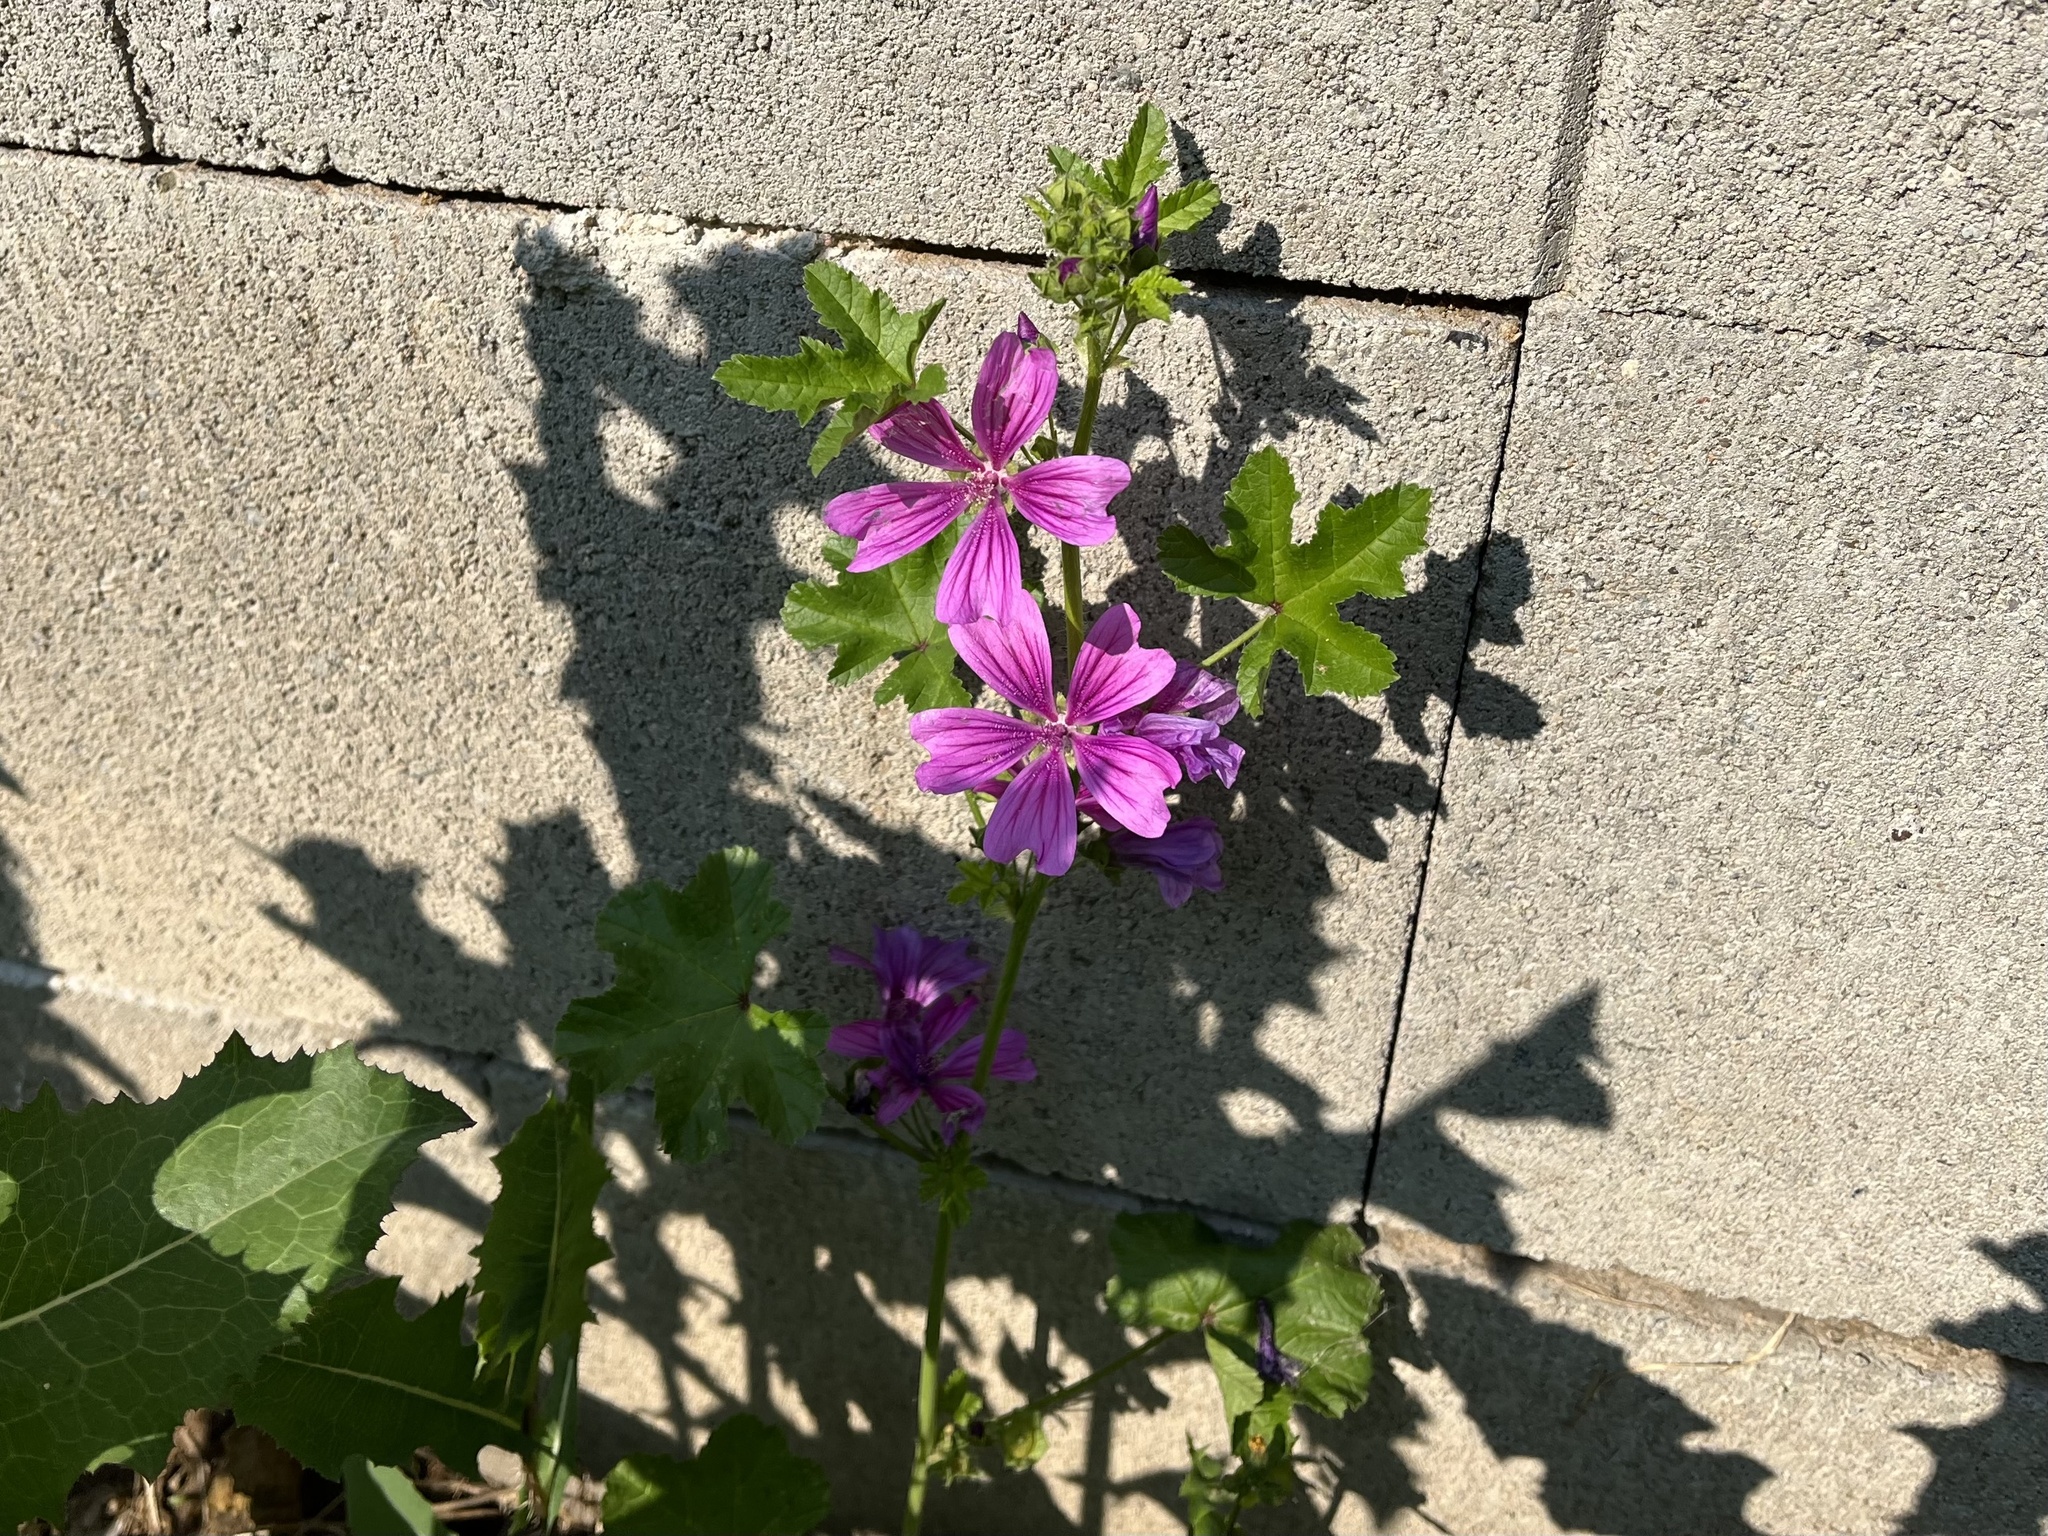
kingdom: Plantae
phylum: Tracheophyta
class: Magnoliopsida
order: Malvales
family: Malvaceae
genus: Malva
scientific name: Malva sylvestris
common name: Common mallow
